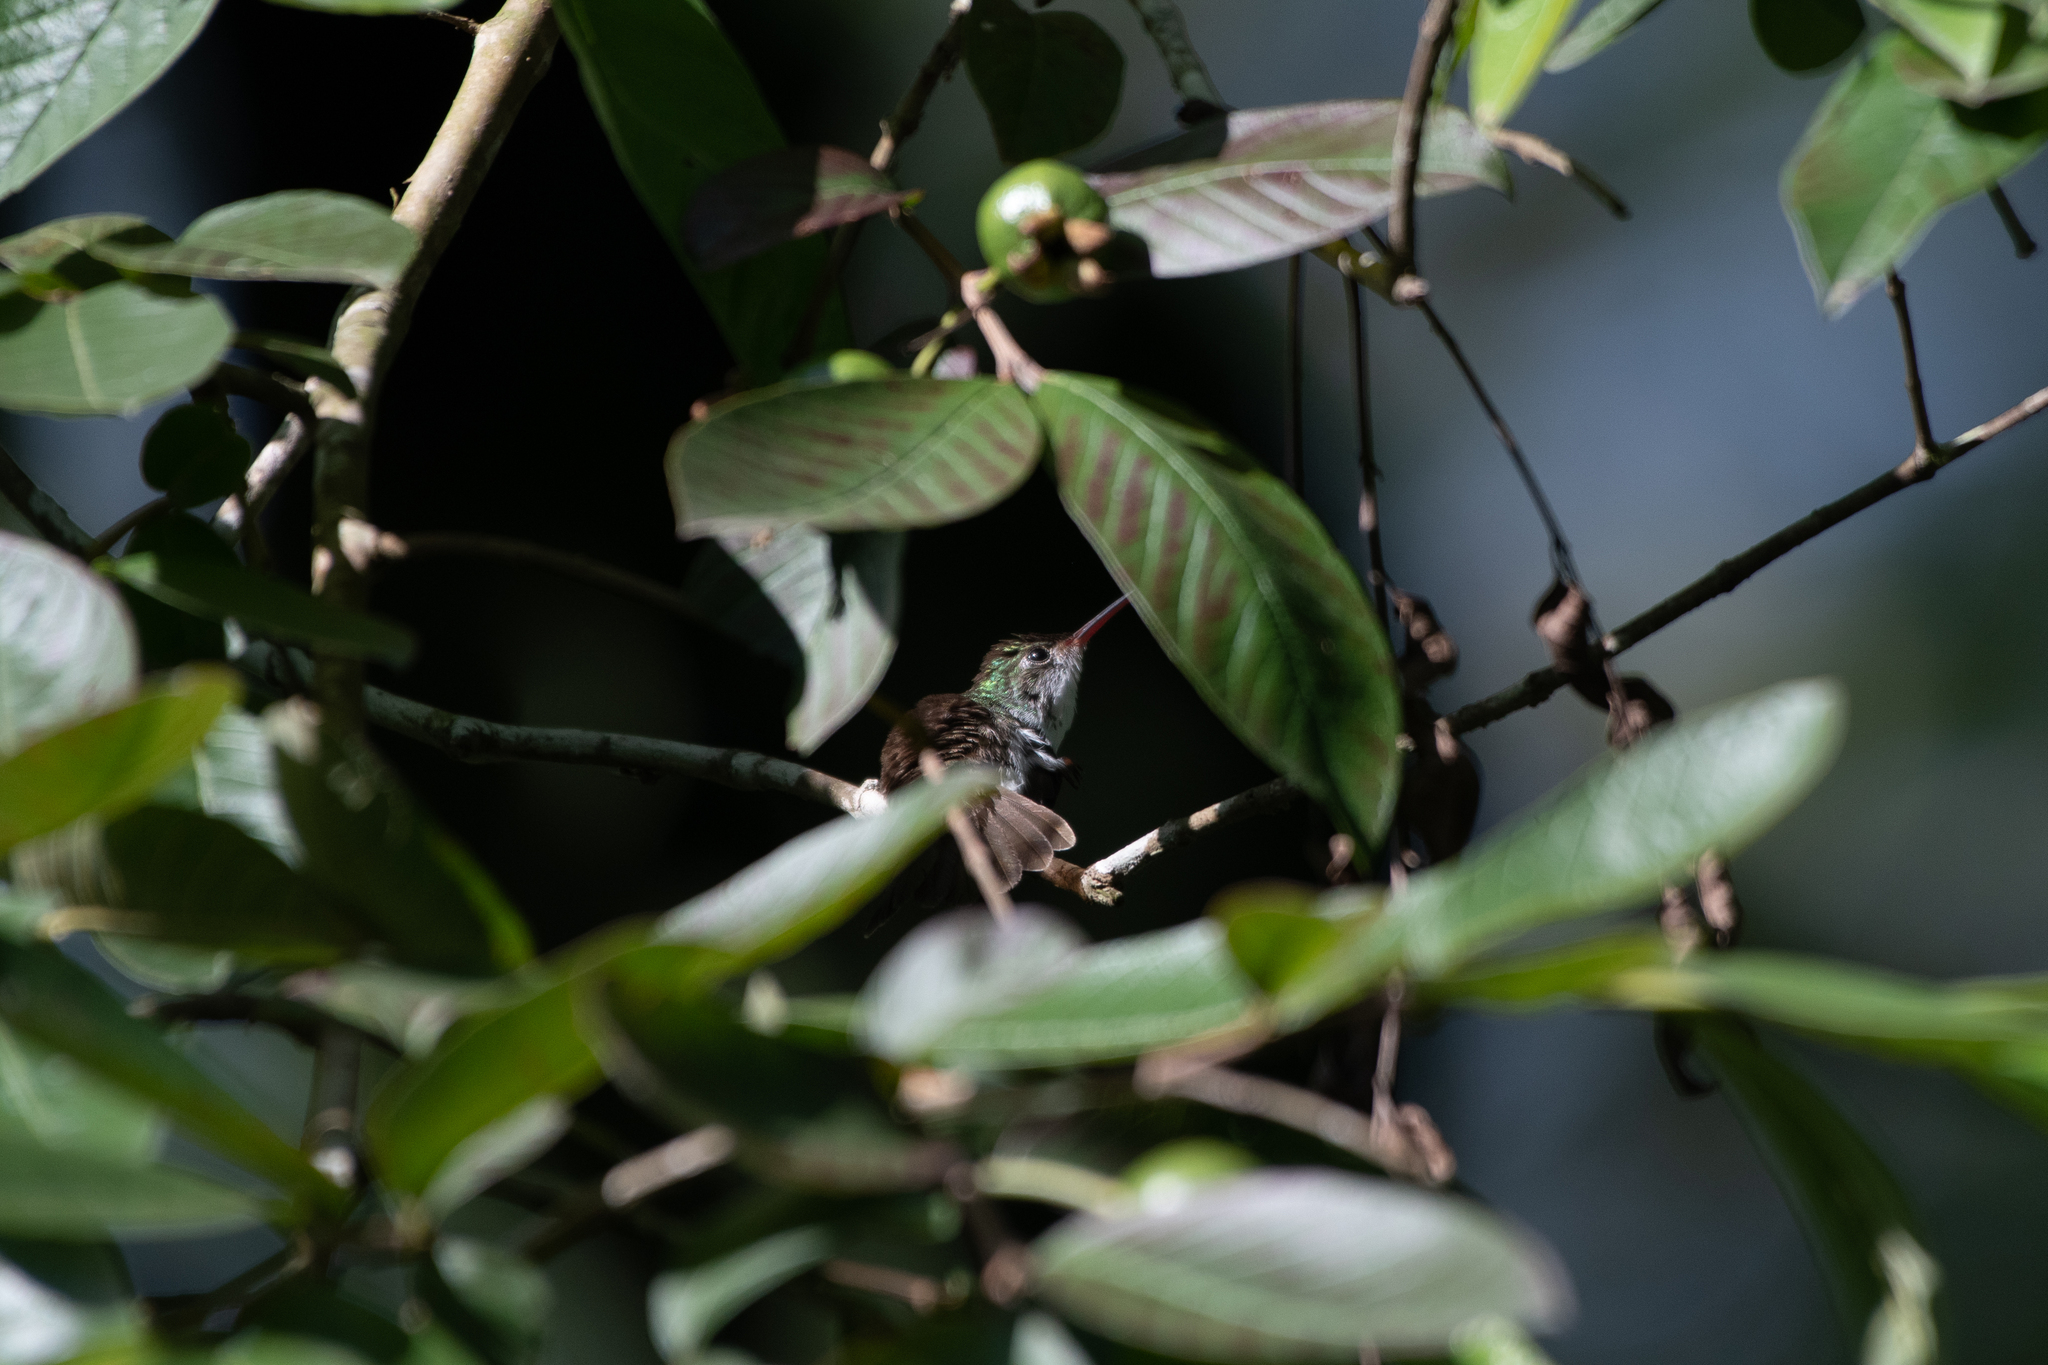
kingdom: Animalia
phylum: Chordata
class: Aves
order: Apodiformes
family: Trochilidae
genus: Chlorestes
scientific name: Chlorestes candida
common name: White-bellied emerald
